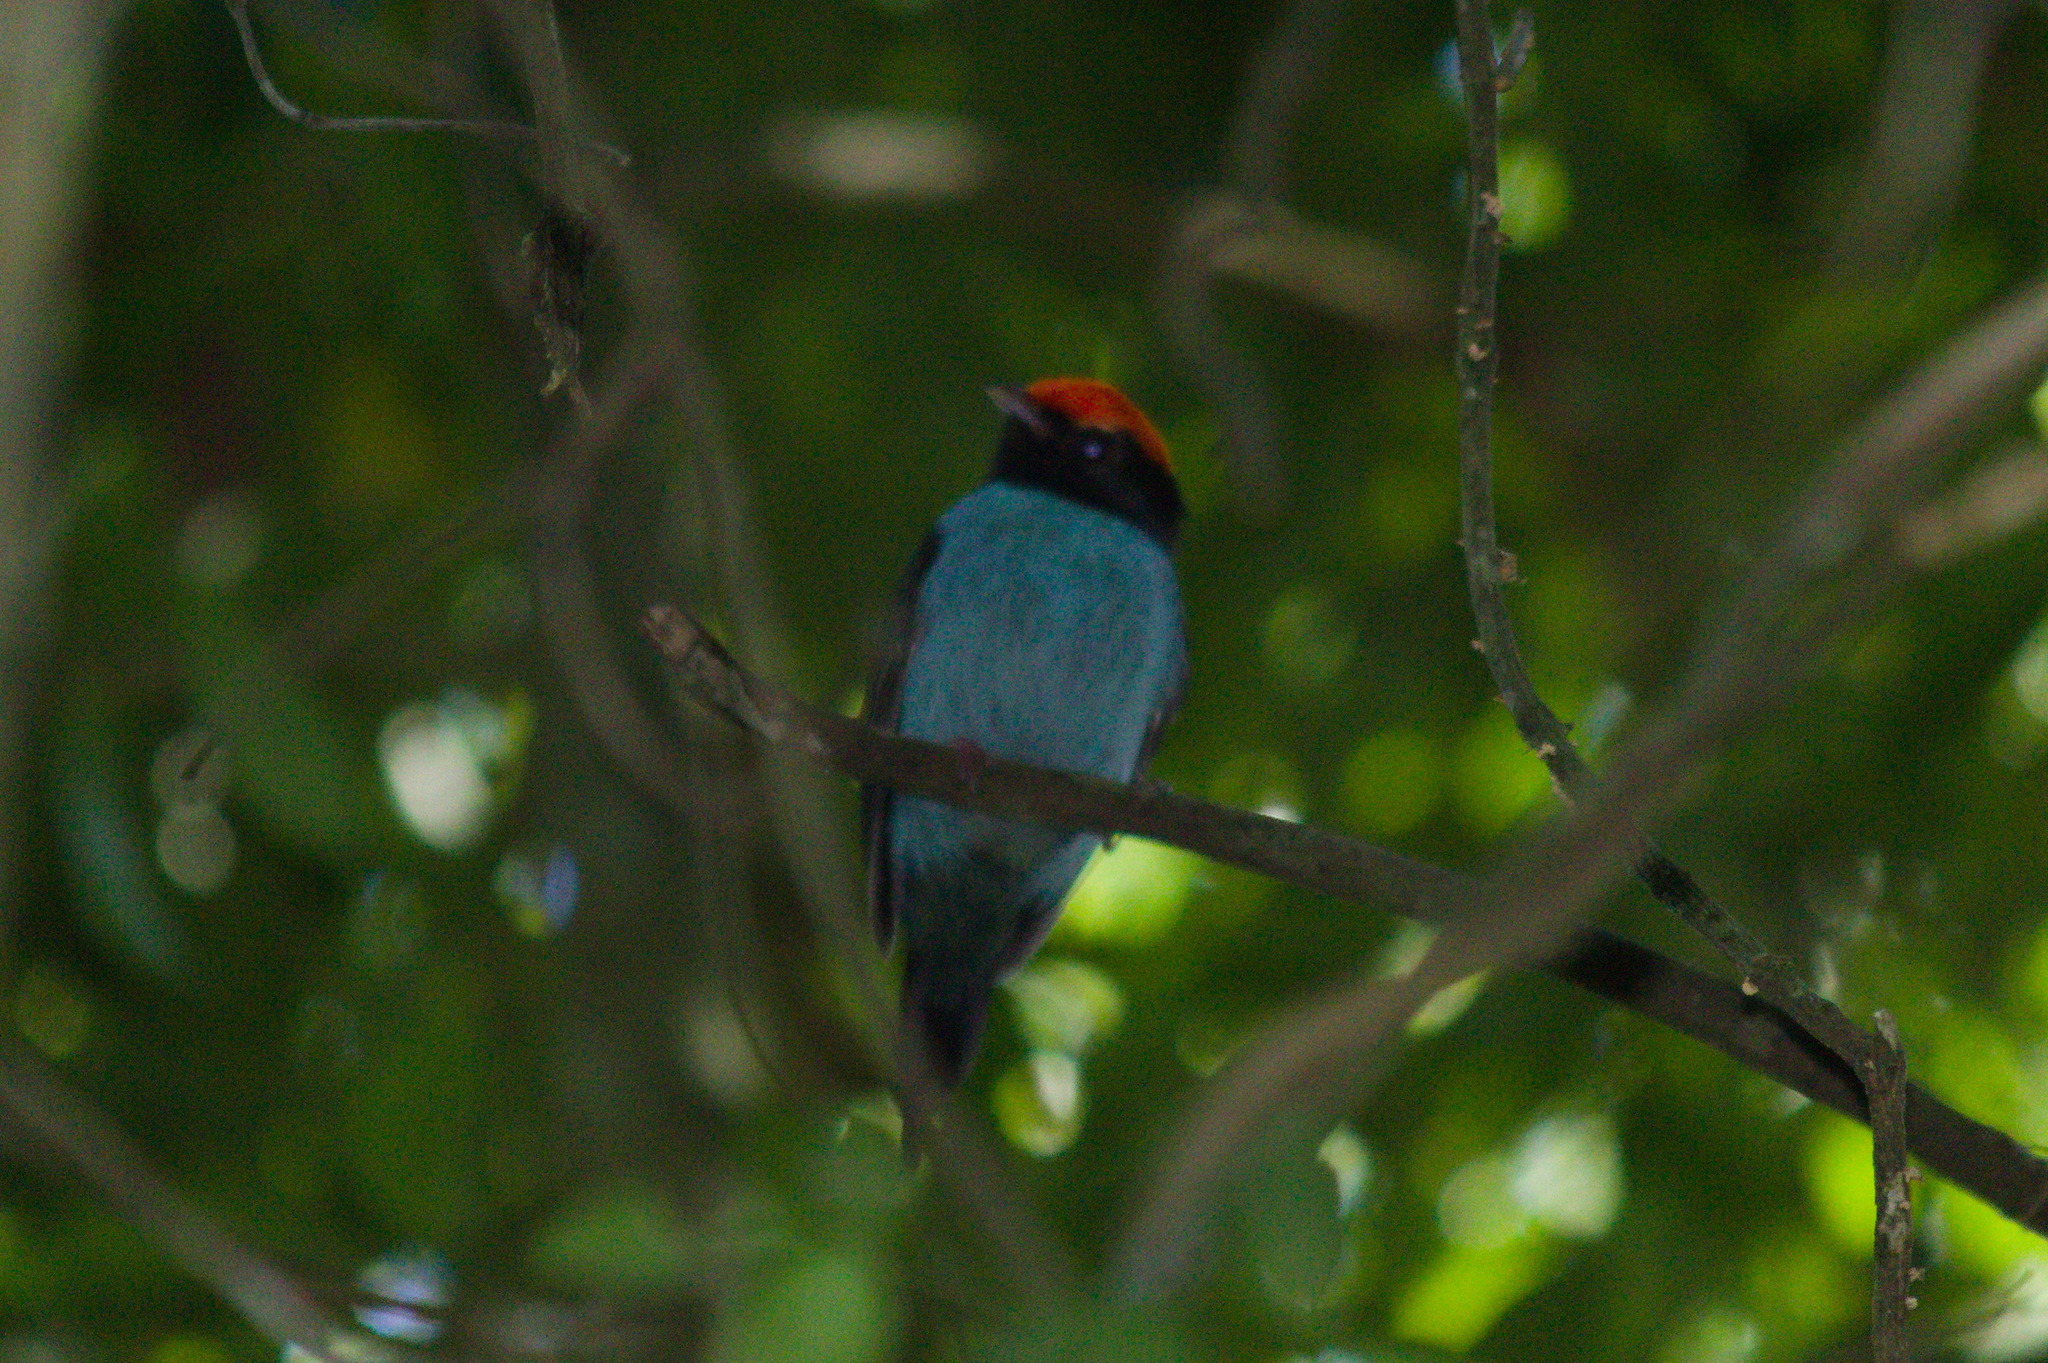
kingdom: Animalia
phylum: Chordata
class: Aves
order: Passeriformes
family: Pipridae
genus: Chiroxiphia
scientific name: Chiroxiphia caudata
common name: Blue manakin
